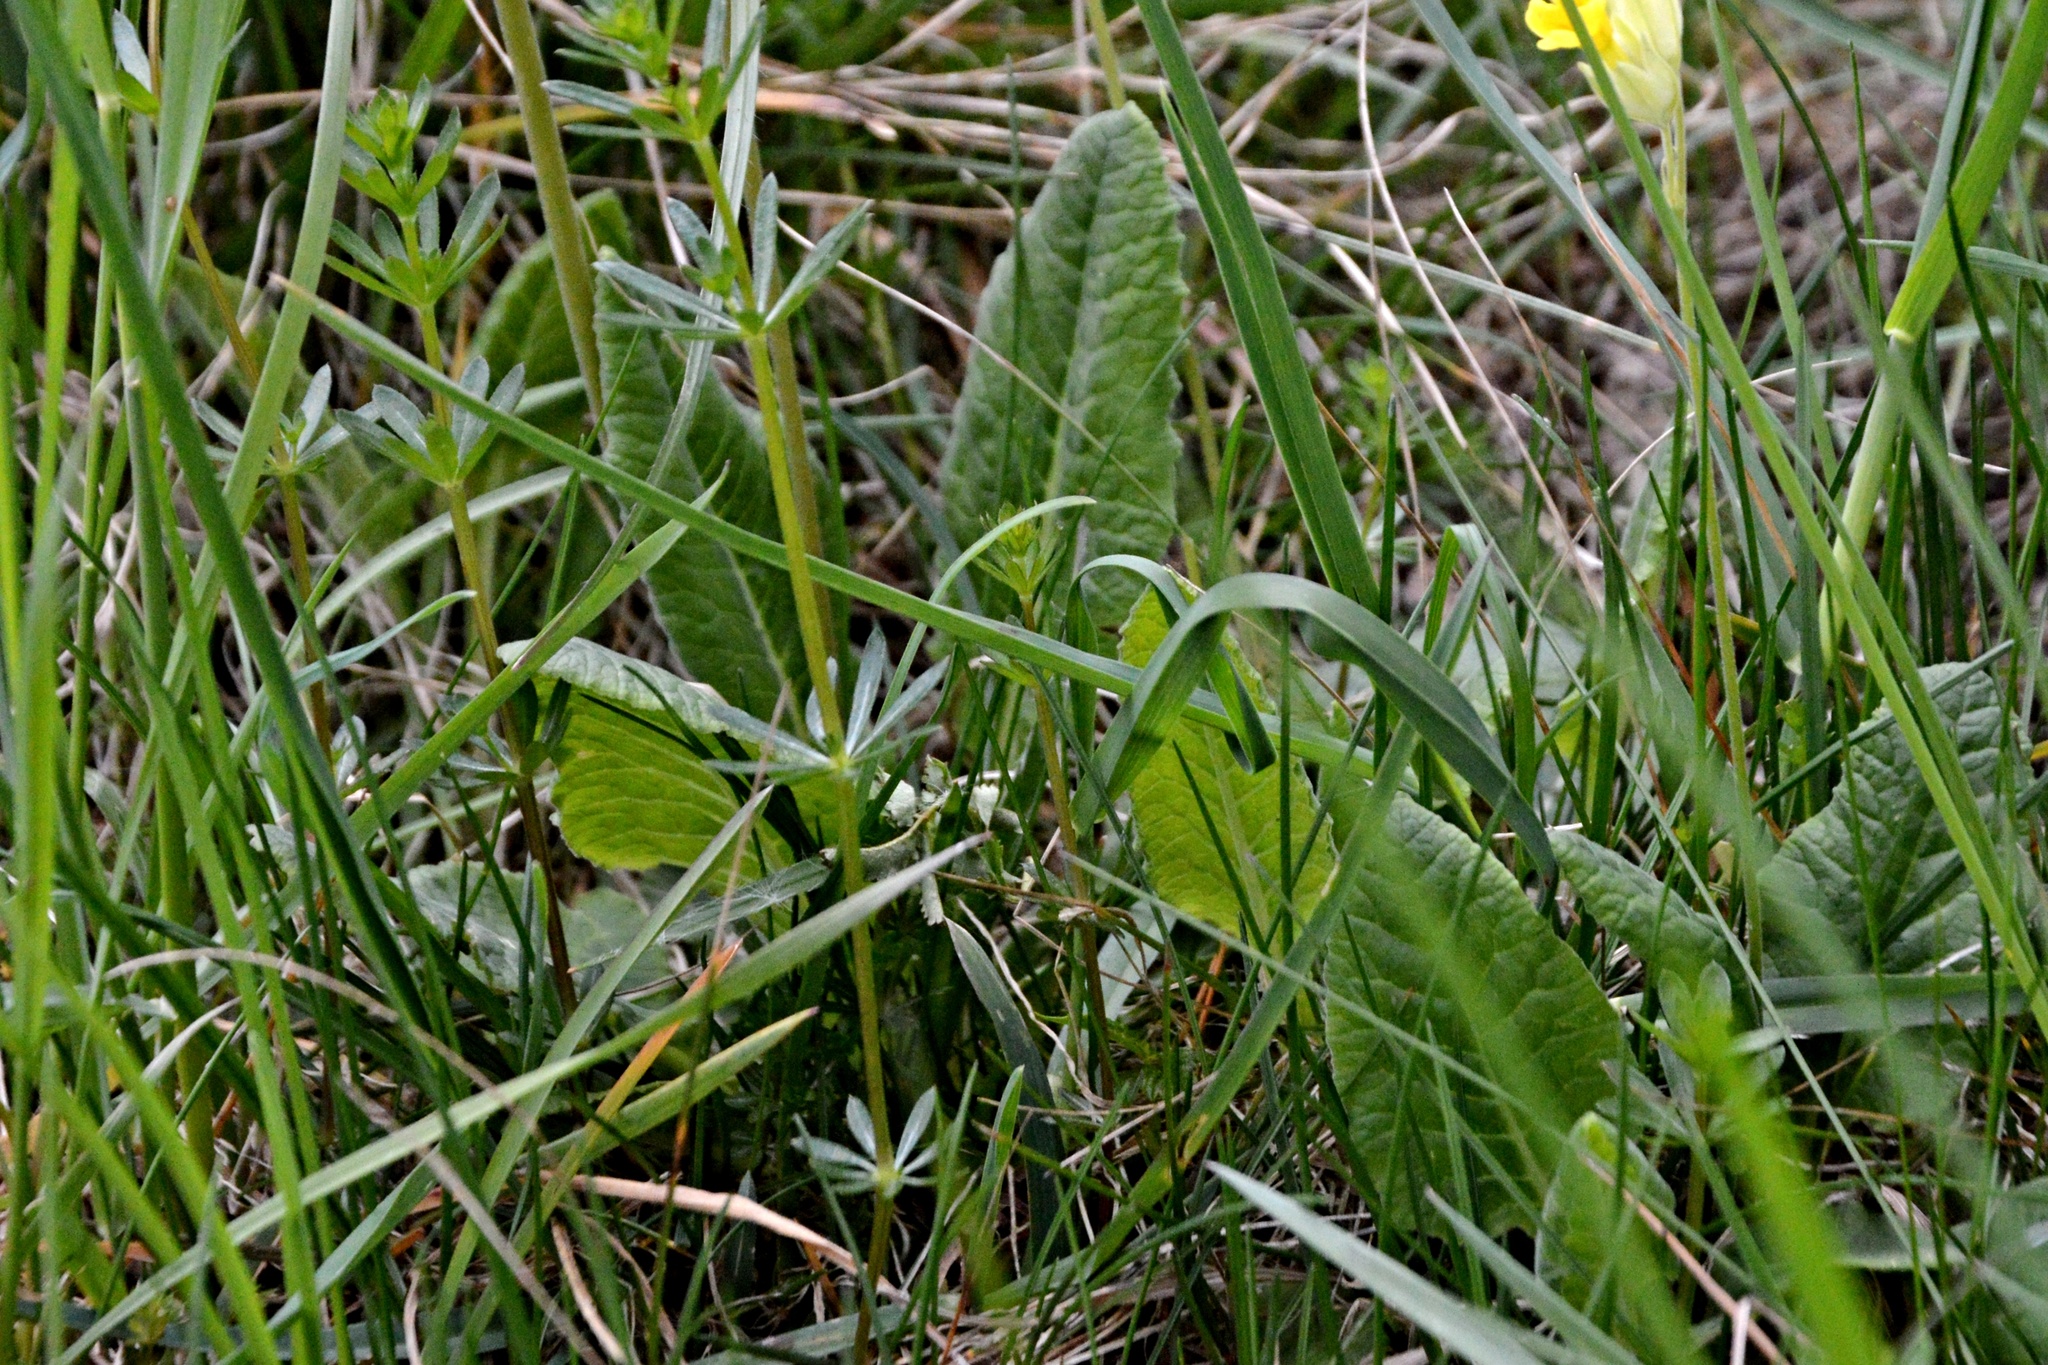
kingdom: Plantae
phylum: Tracheophyta
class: Magnoliopsida
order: Ericales
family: Primulaceae
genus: Primula
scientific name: Primula veris
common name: Cowslip
